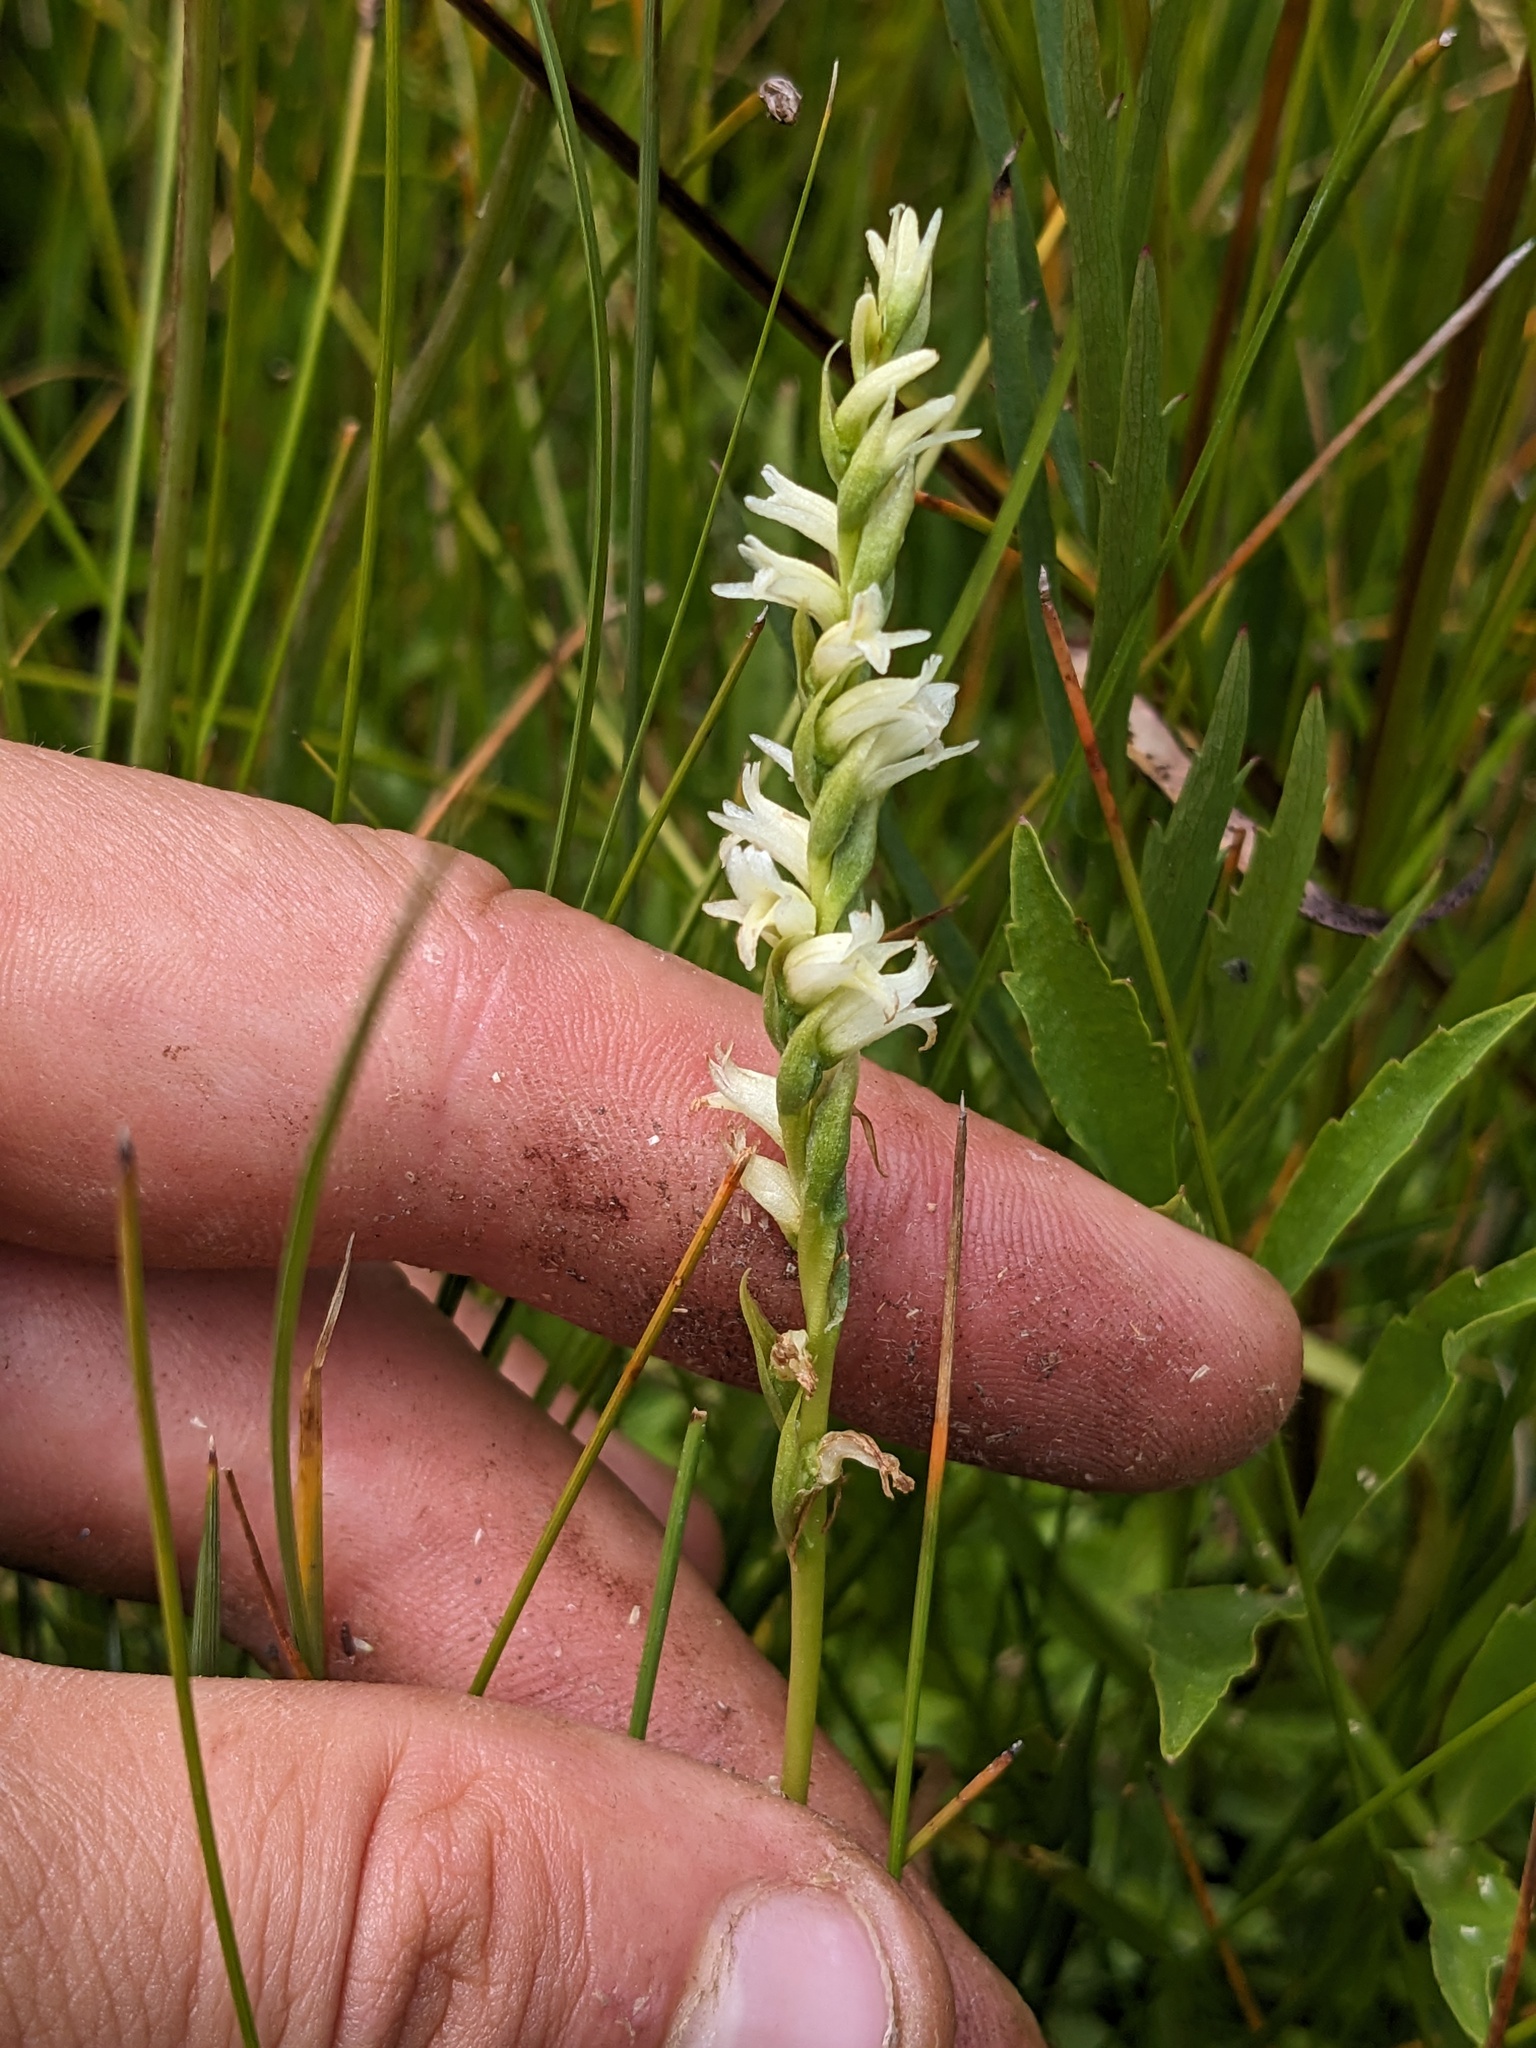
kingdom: Plantae
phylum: Tracheophyta
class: Liliopsida
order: Asparagales
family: Orchidaceae
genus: Spiranthes
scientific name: Spiranthes perexilis
